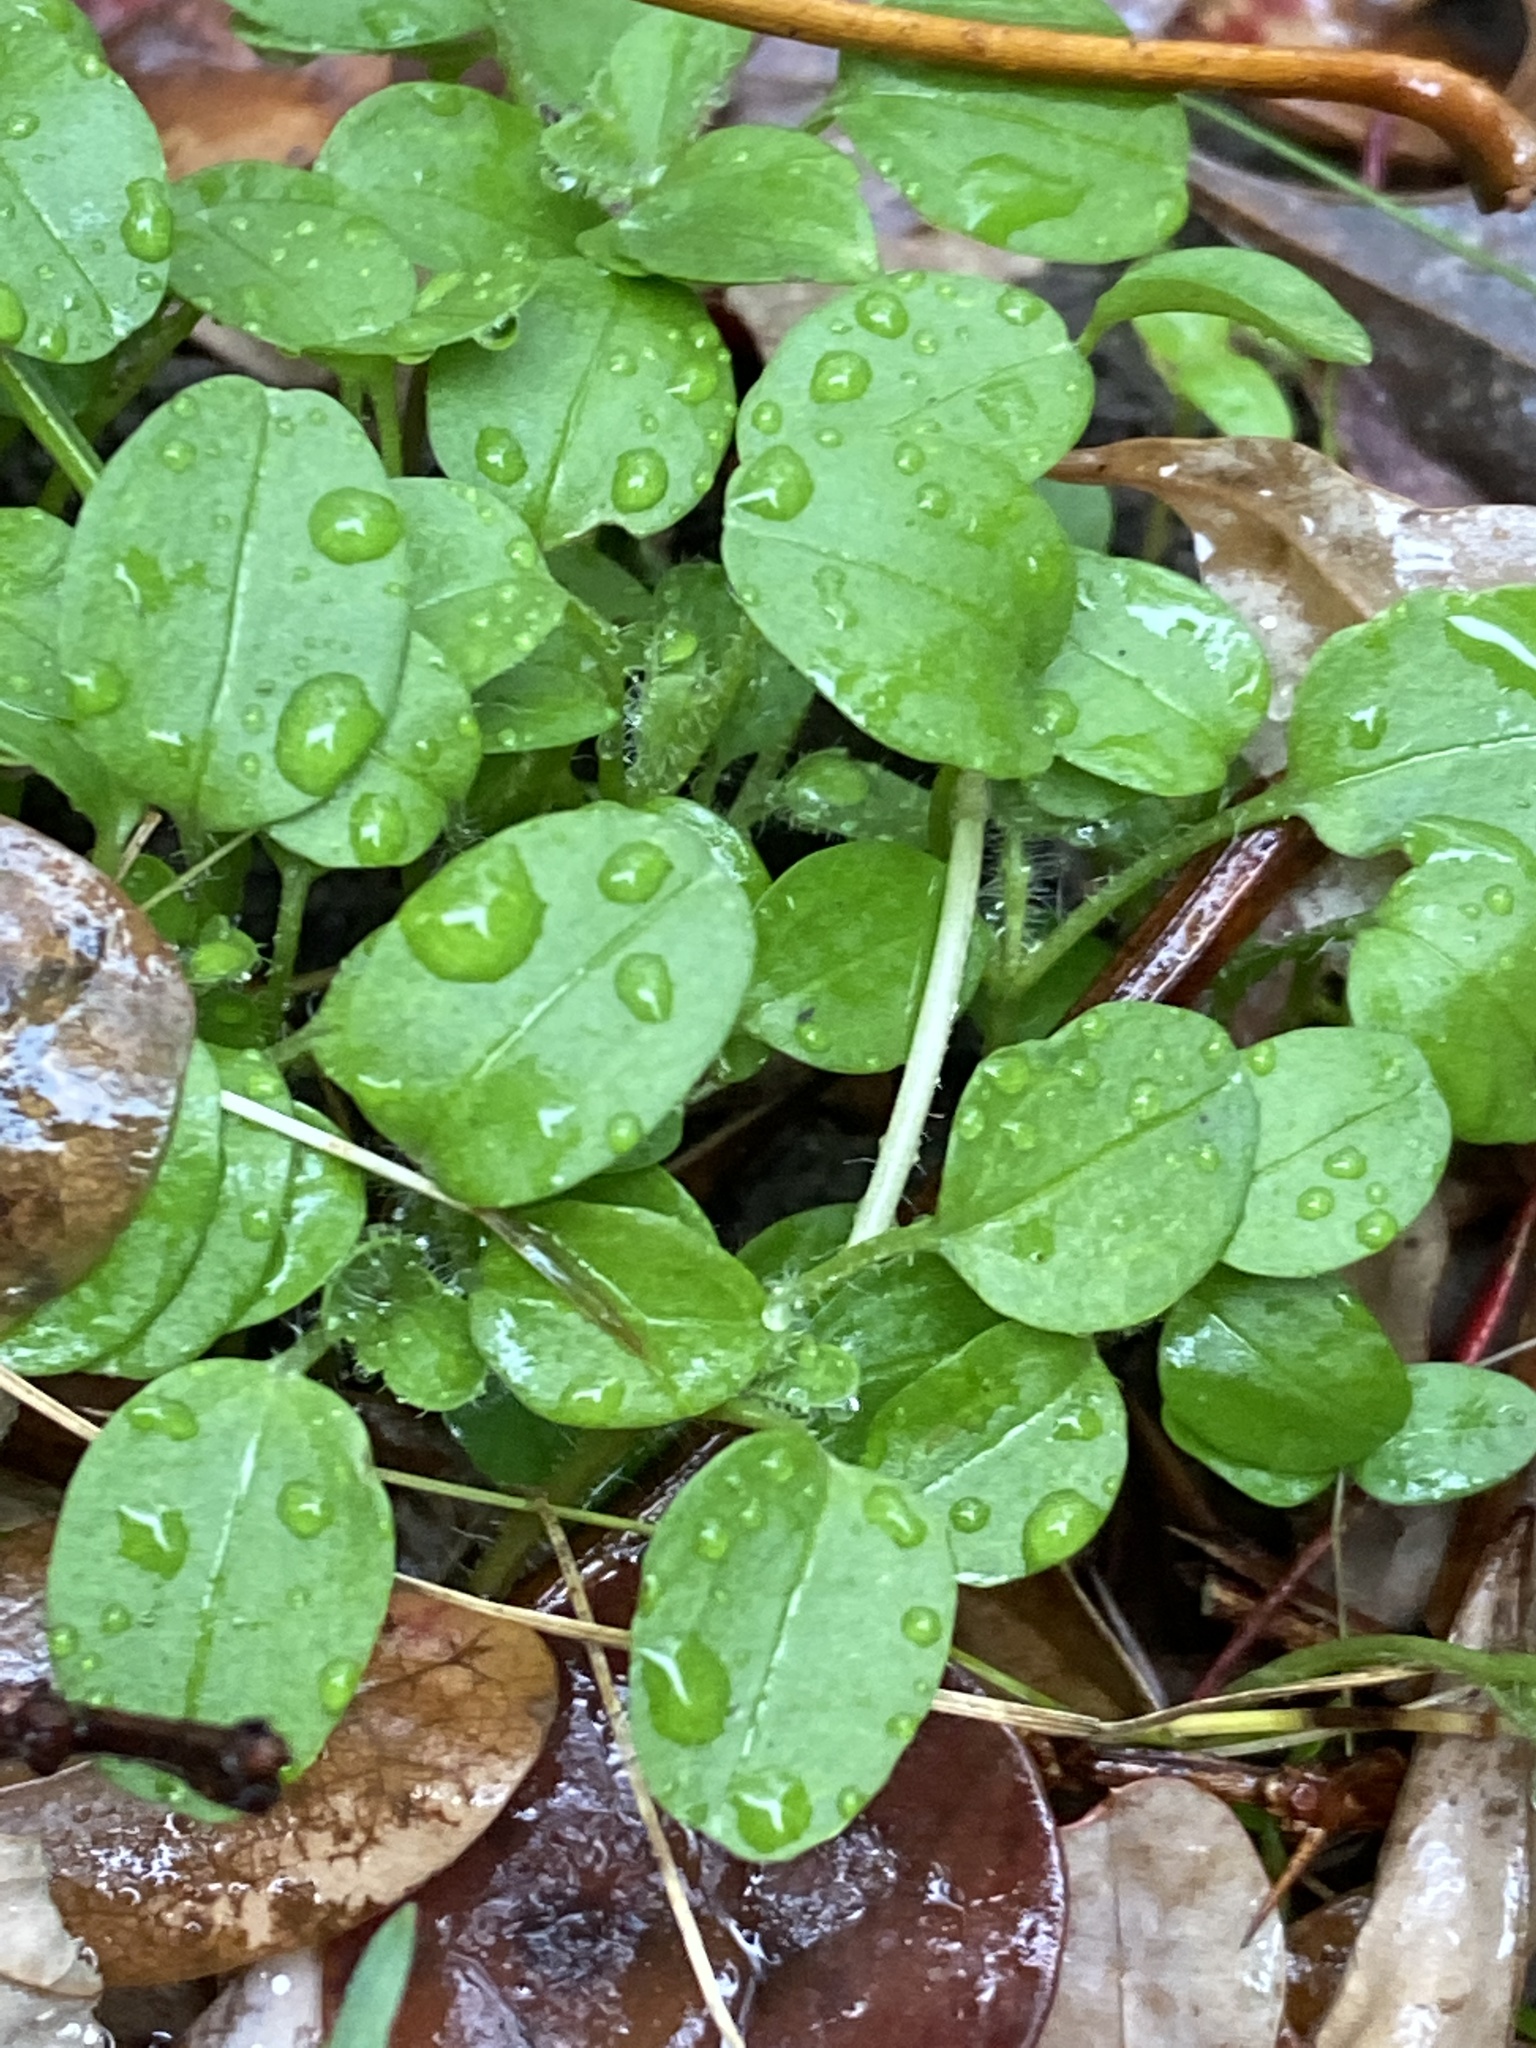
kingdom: Plantae
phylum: Tracheophyta
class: Magnoliopsida
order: Lamiales
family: Plantaginaceae
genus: Veronica
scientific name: Veronica serpyllifolia
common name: Thyme-leaved speedwell
